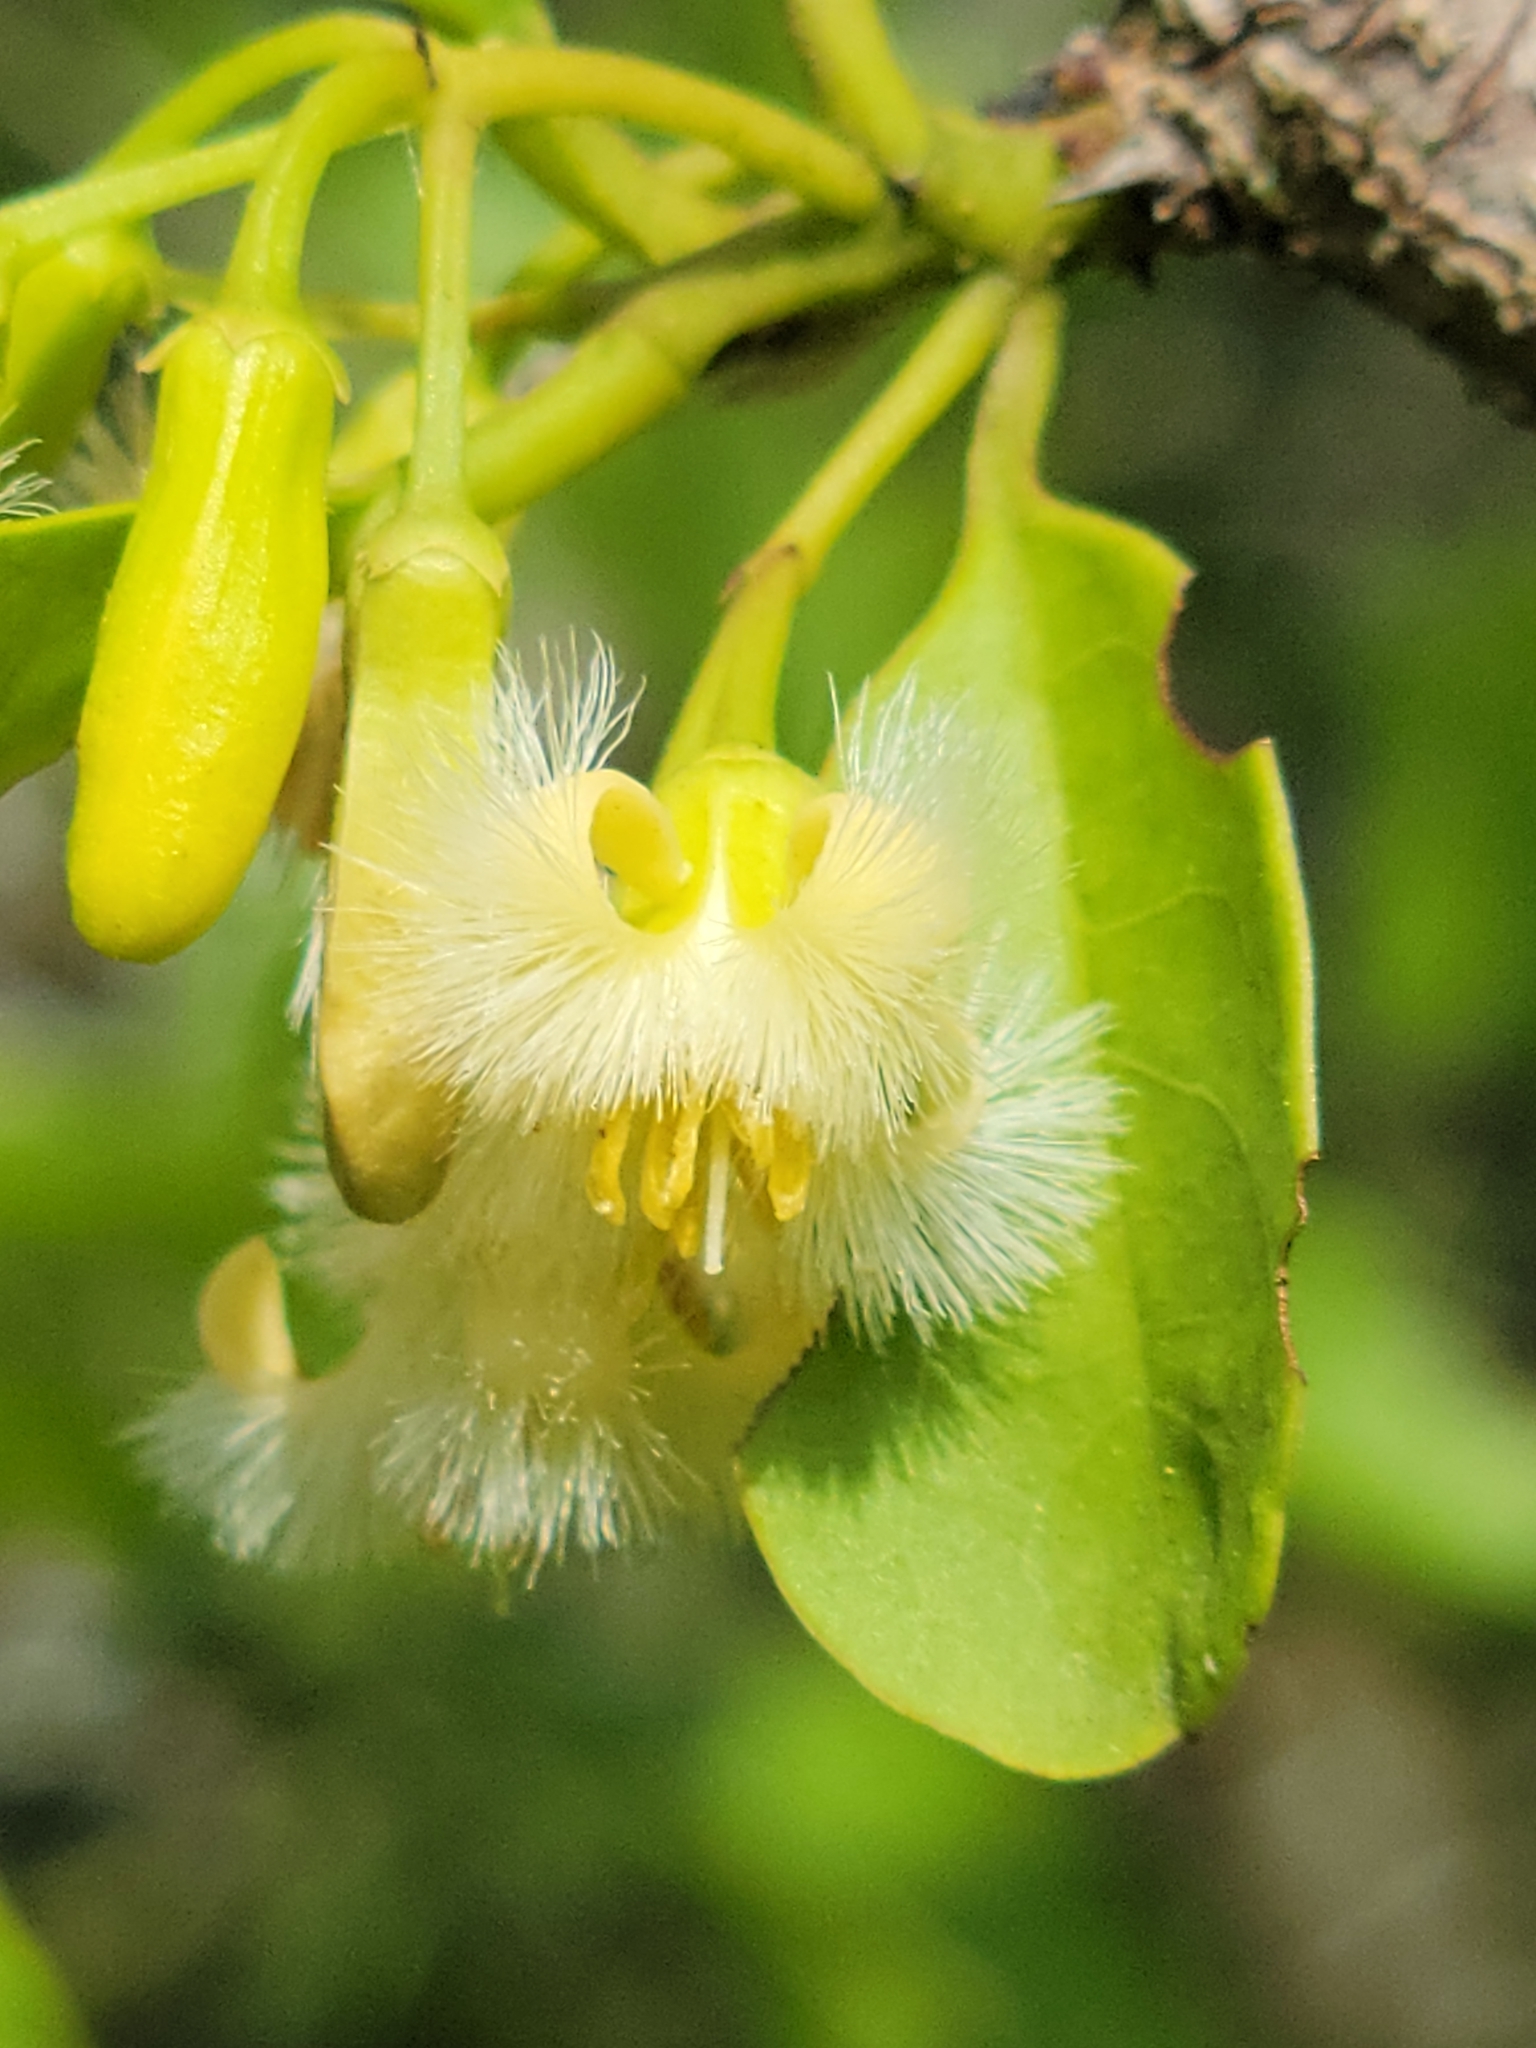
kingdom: Plantae
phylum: Tracheophyta
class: Magnoliopsida
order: Santalales
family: Ximeniaceae
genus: Ximenia
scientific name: Ximenia americana
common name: Tallowwood
